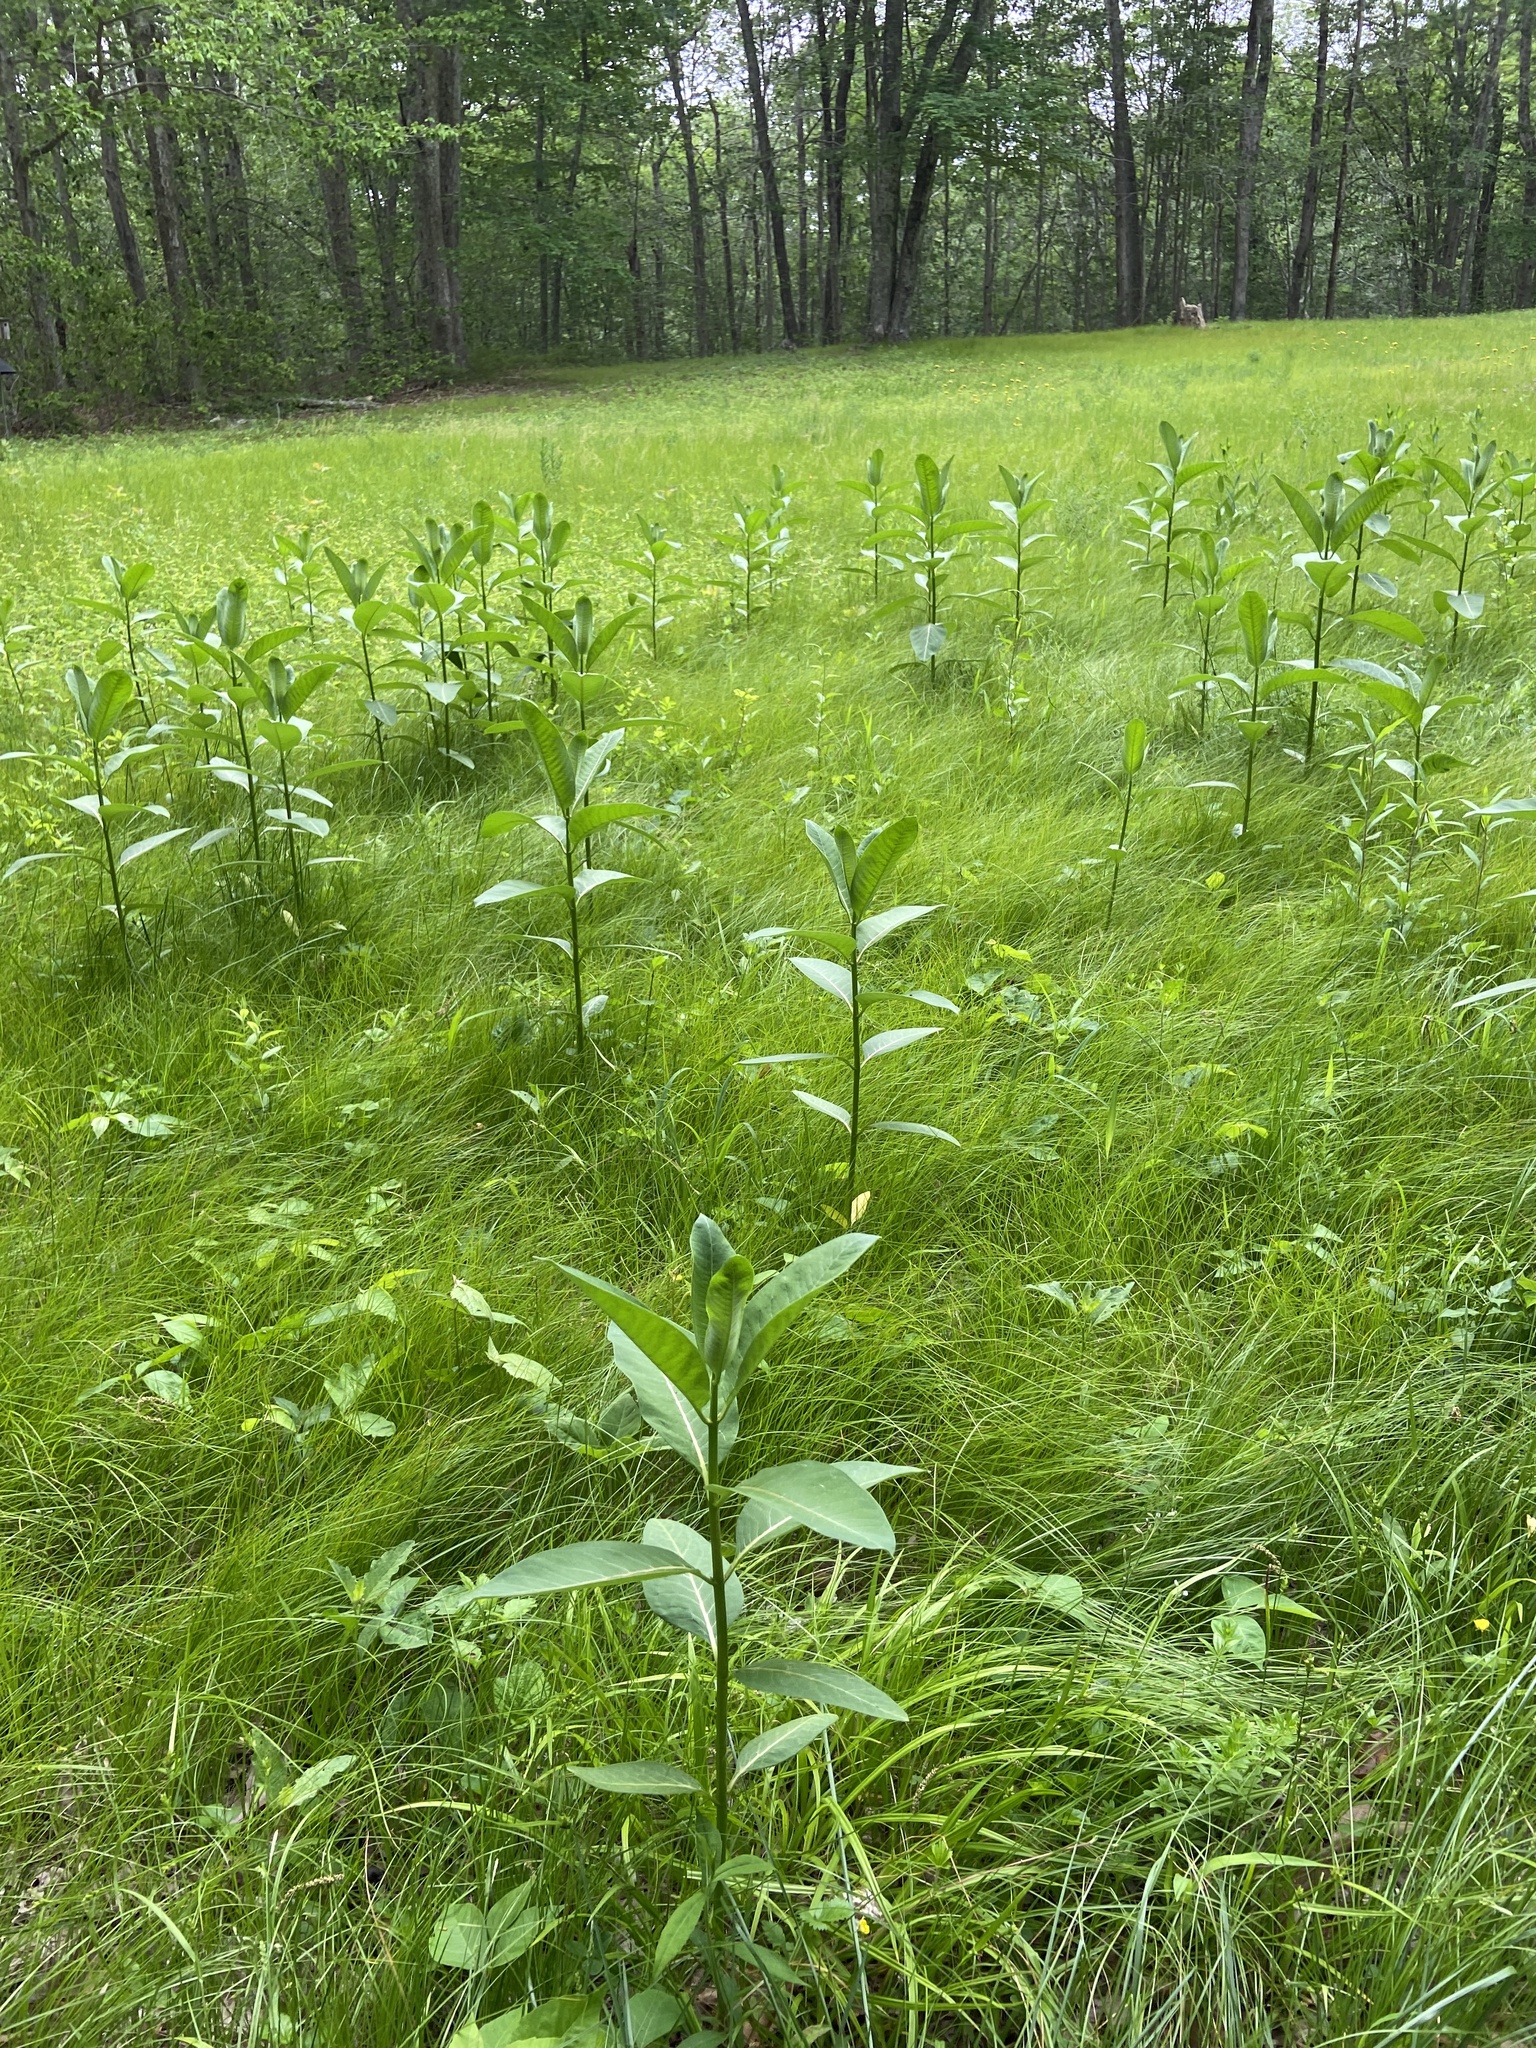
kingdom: Plantae
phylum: Tracheophyta
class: Magnoliopsida
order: Gentianales
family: Apocynaceae
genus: Asclepias
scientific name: Asclepias syriaca
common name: Common milkweed
